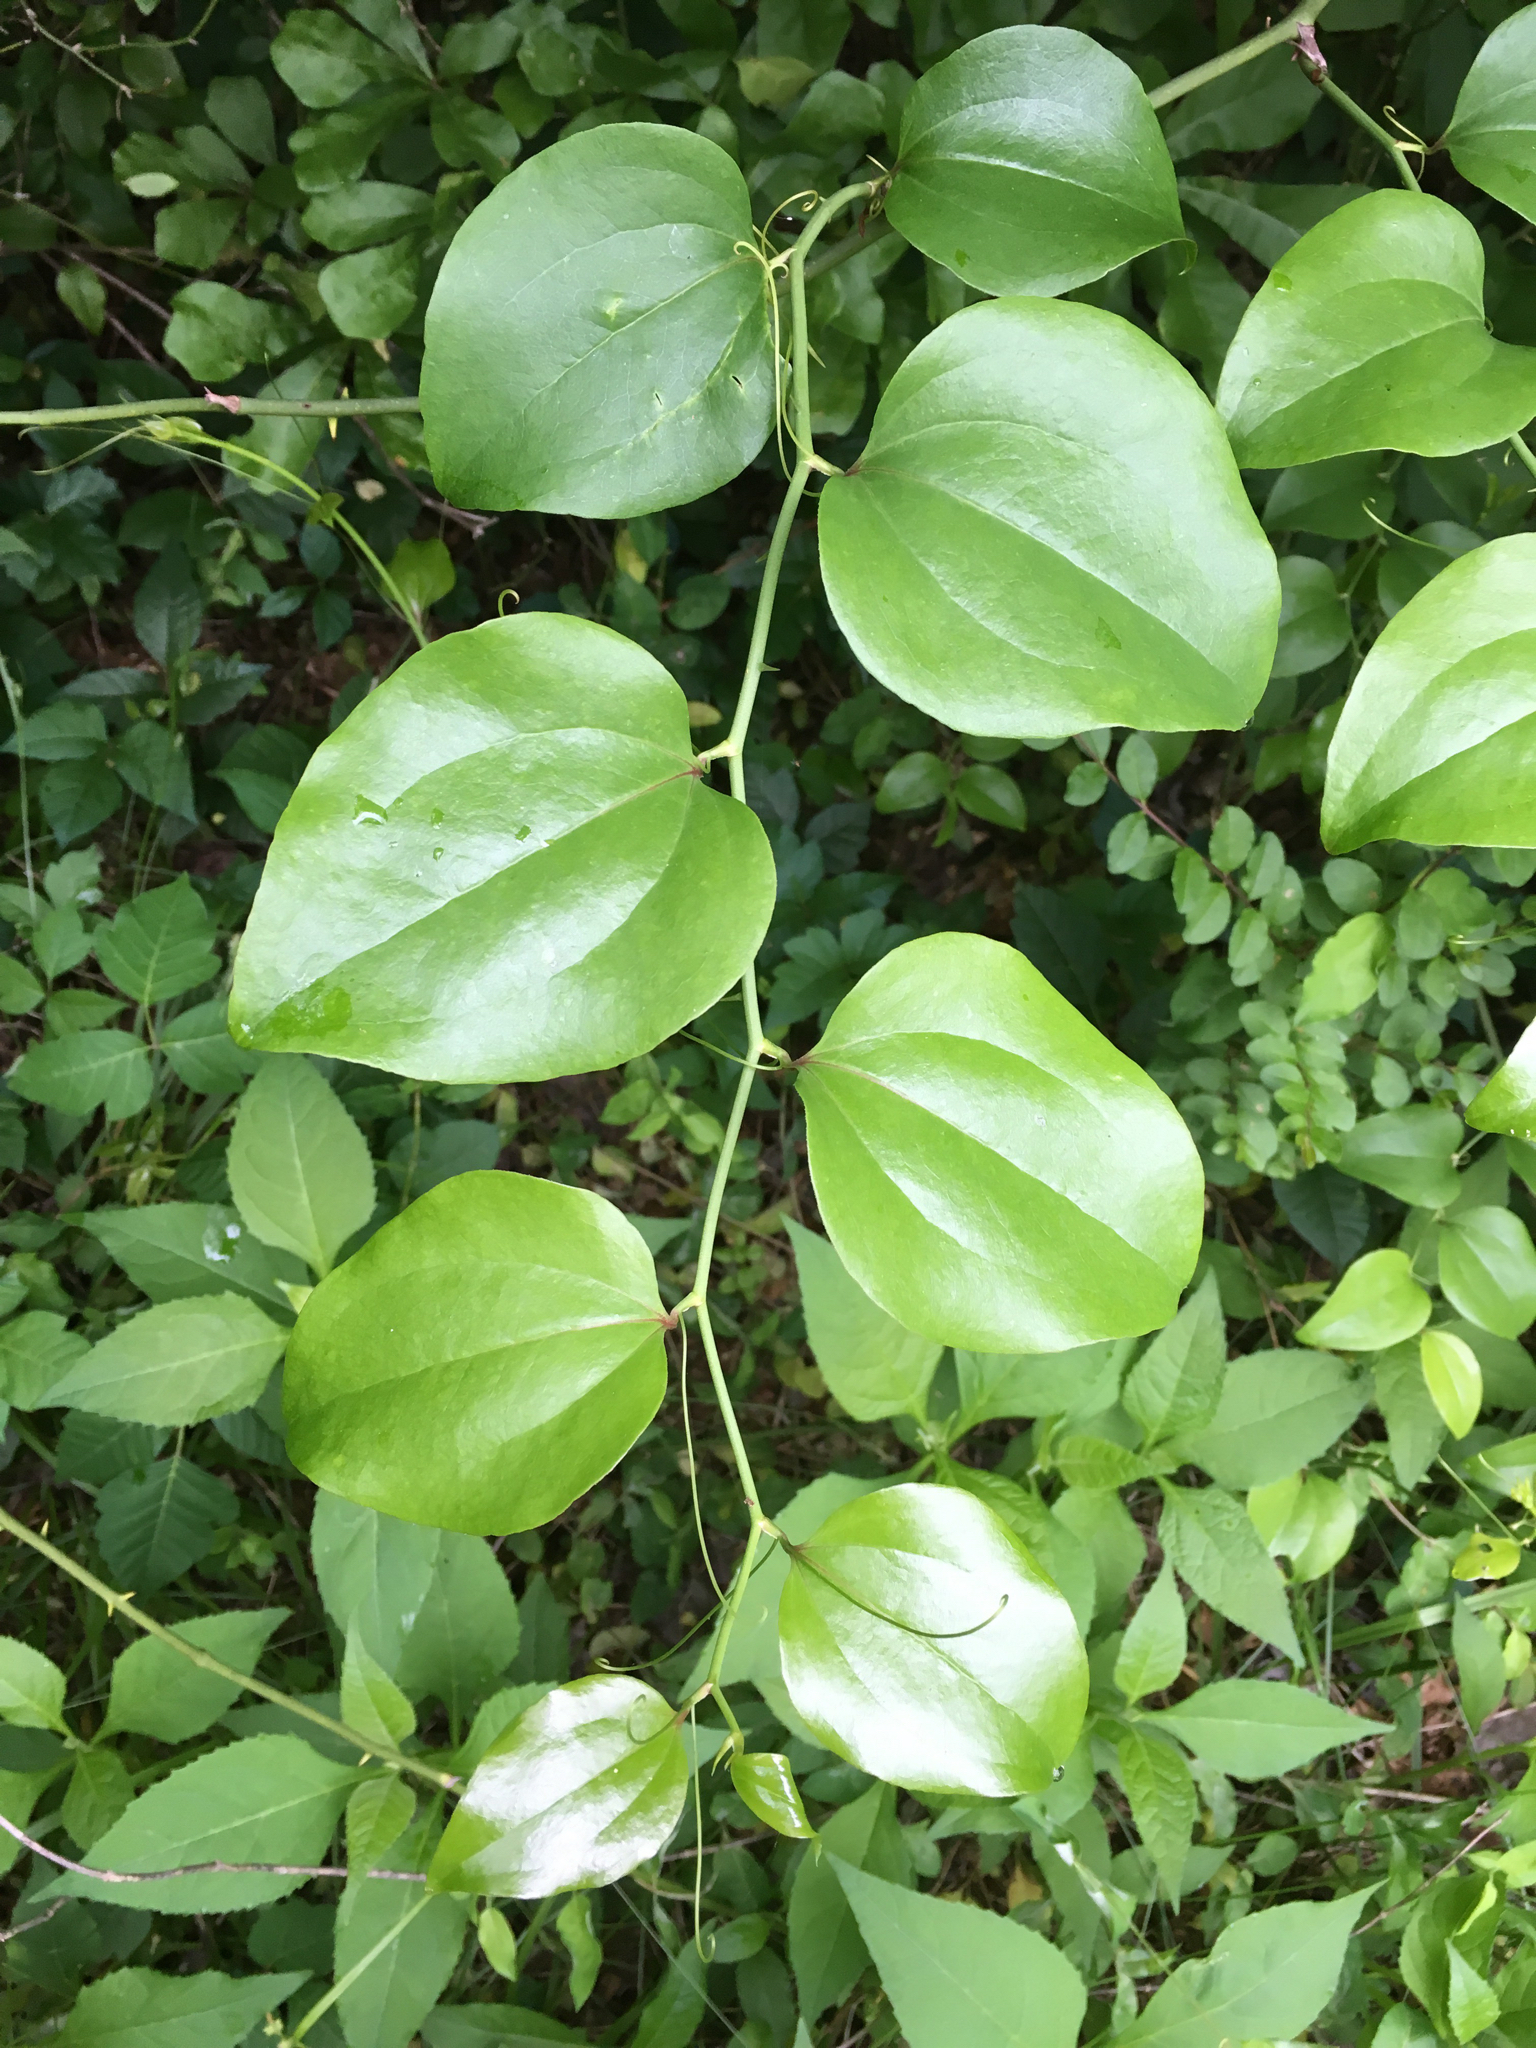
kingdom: Plantae
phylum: Tracheophyta
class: Liliopsida
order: Liliales
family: Smilacaceae
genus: Smilax
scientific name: Smilax rotundifolia
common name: Bullbriar
